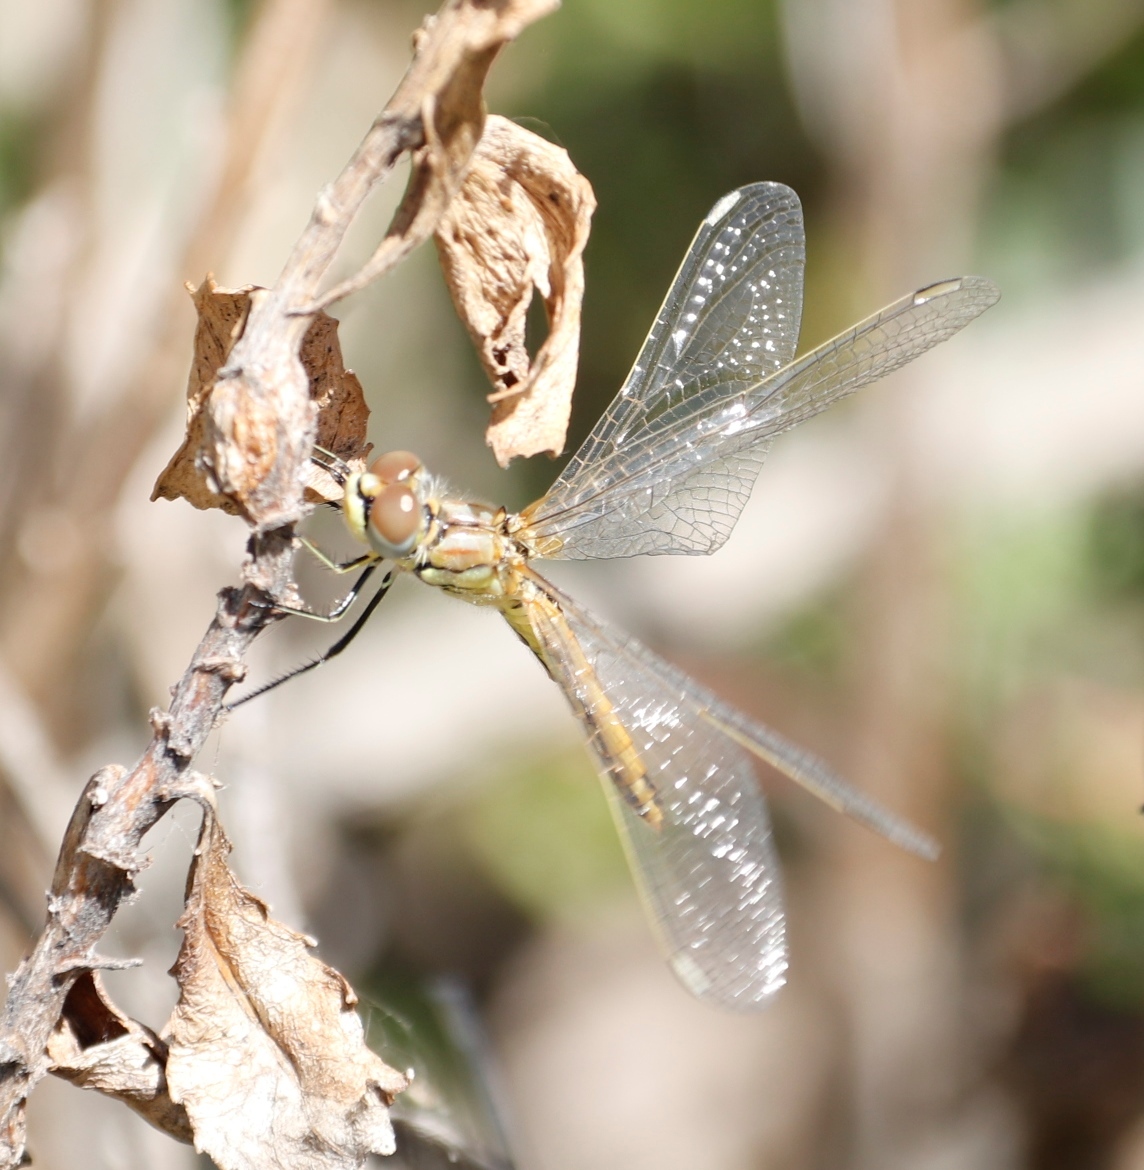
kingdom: Animalia
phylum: Arthropoda
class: Insecta
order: Odonata
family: Libellulidae
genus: Sympetrum
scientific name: Sympetrum fonscolombii
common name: Red-veined darter
